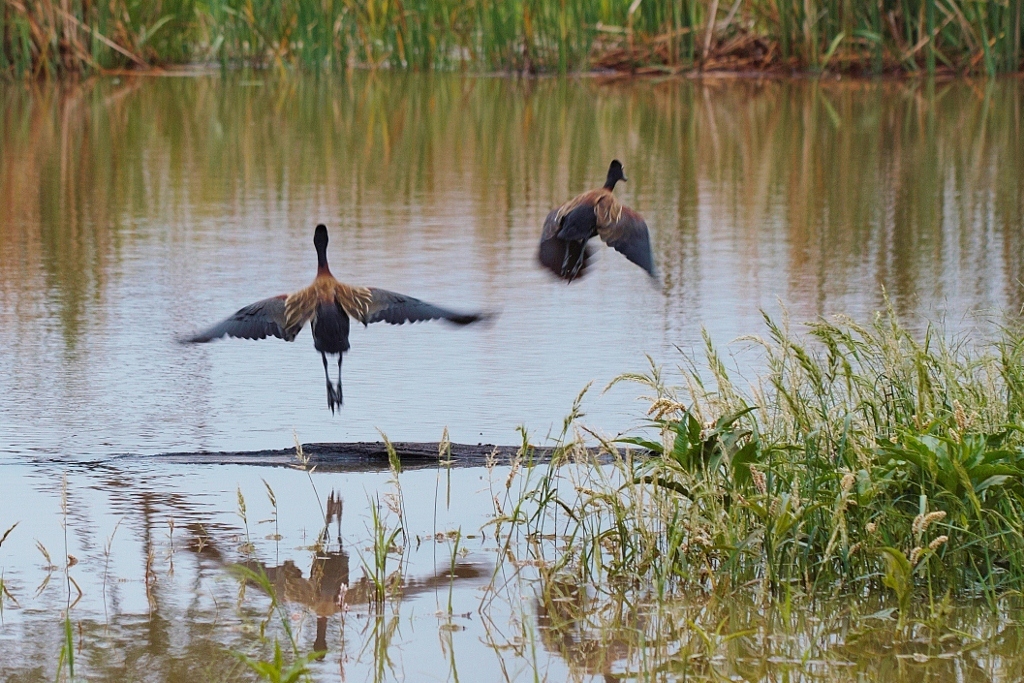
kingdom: Animalia
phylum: Chordata
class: Aves
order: Anseriformes
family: Anatidae
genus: Dendrocygna
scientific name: Dendrocygna viduata
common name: White-faced whistling duck
